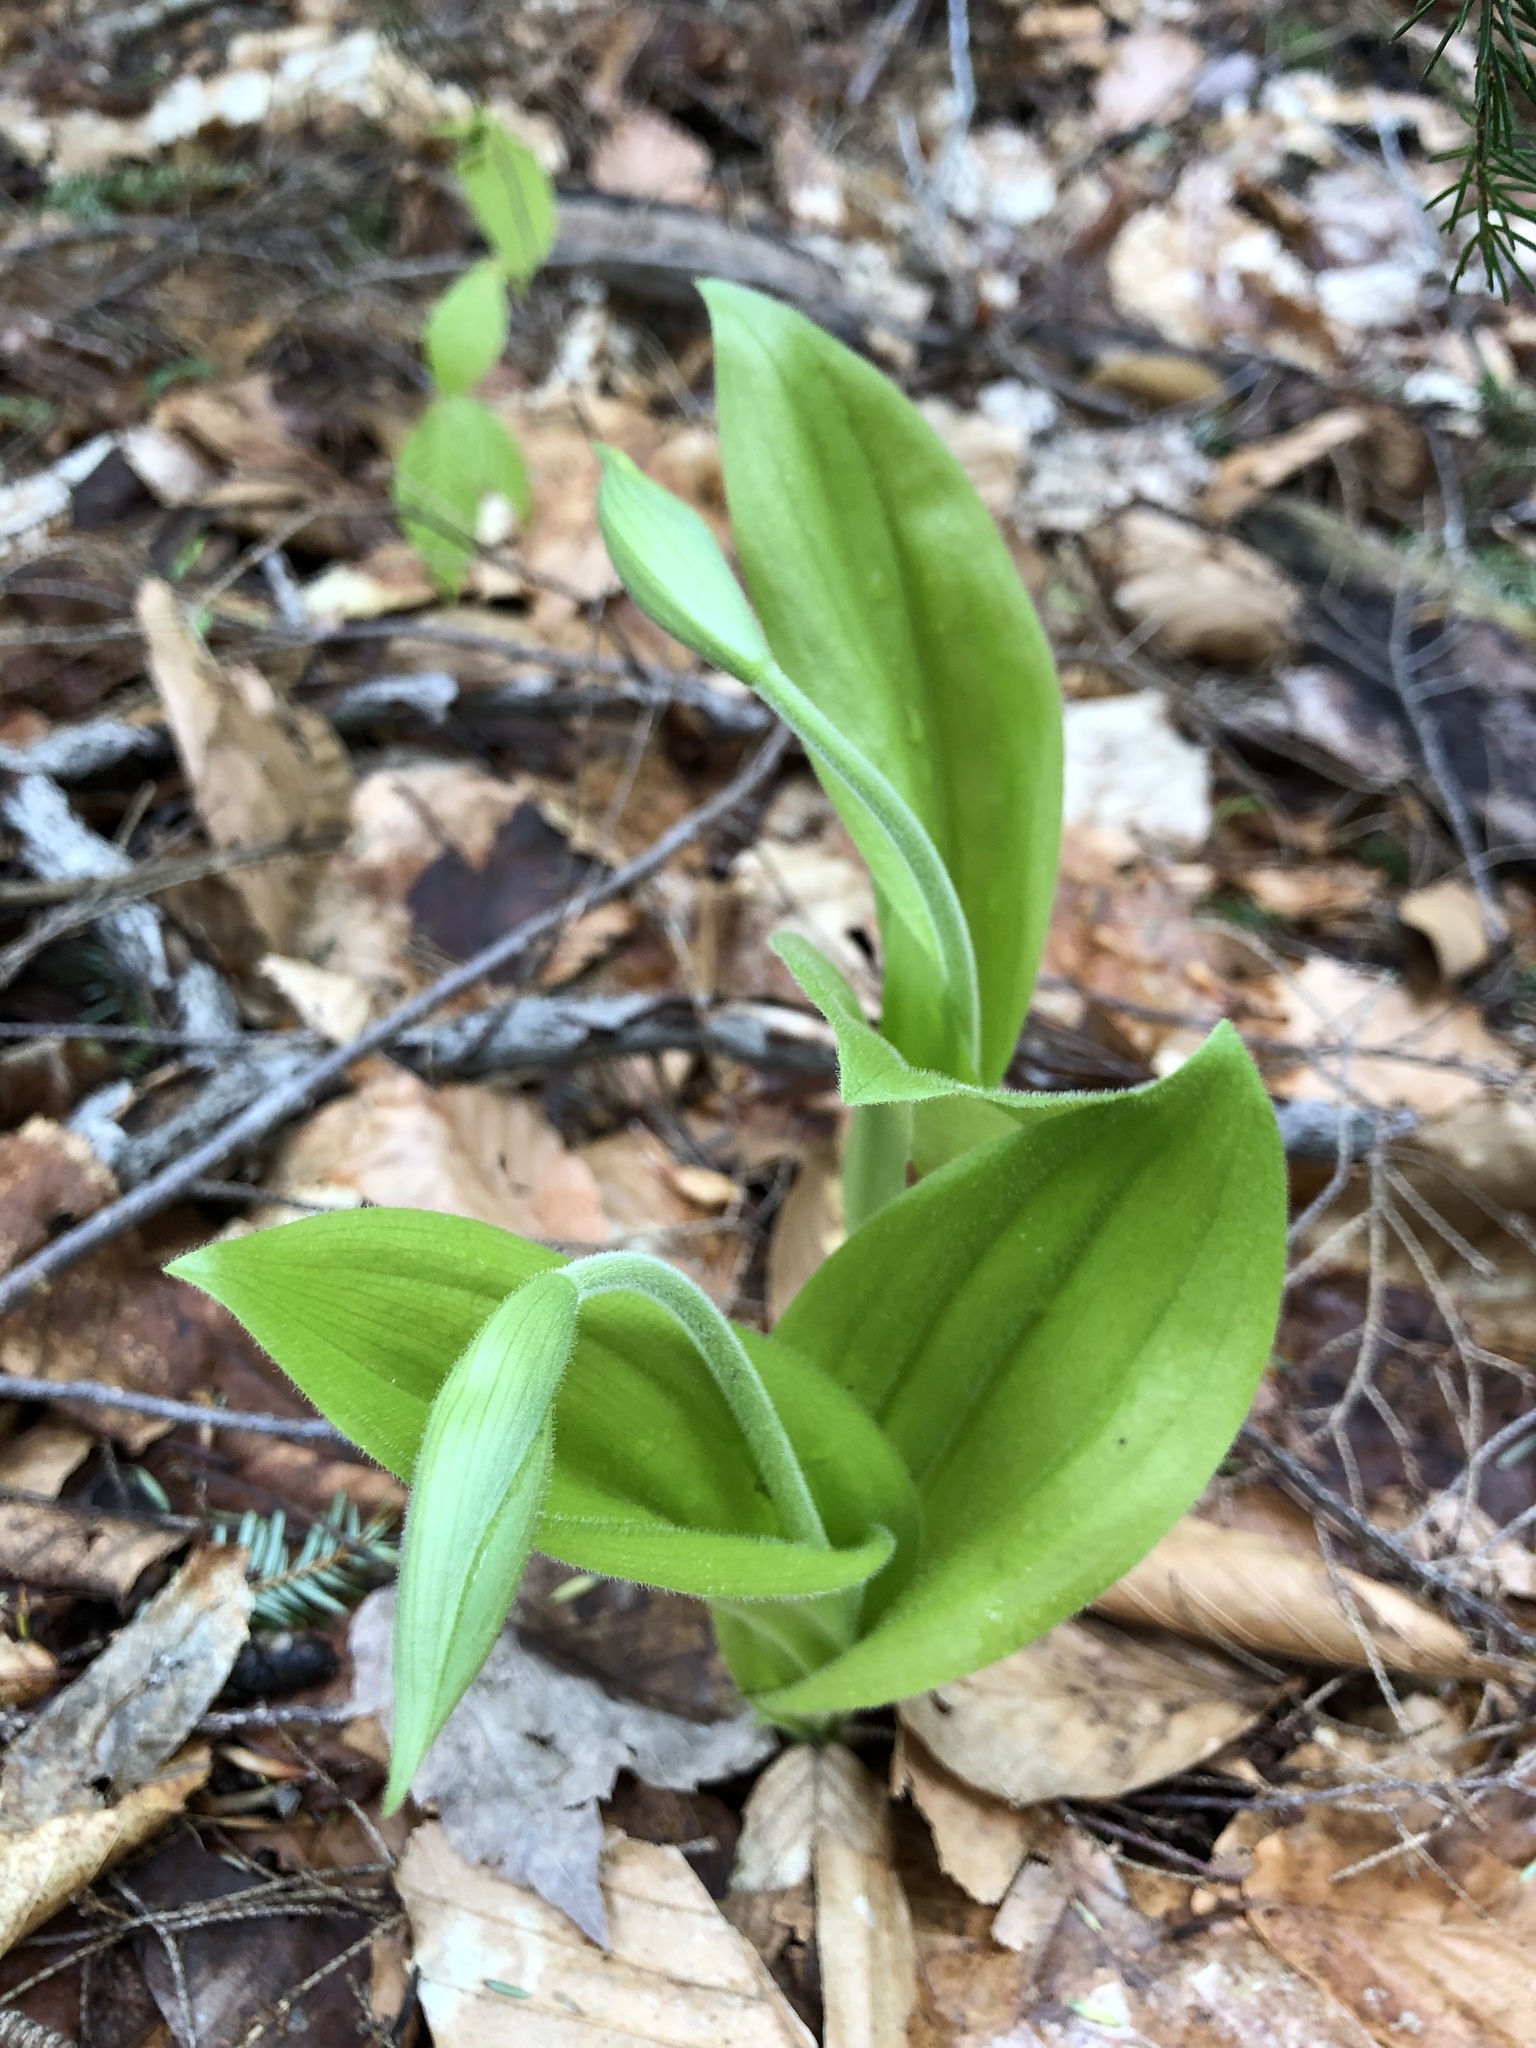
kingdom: Plantae
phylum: Tracheophyta
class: Liliopsida
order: Asparagales
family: Orchidaceae
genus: Cypripedium
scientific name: Cypripedium acaule
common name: Pink lady's-slipper
